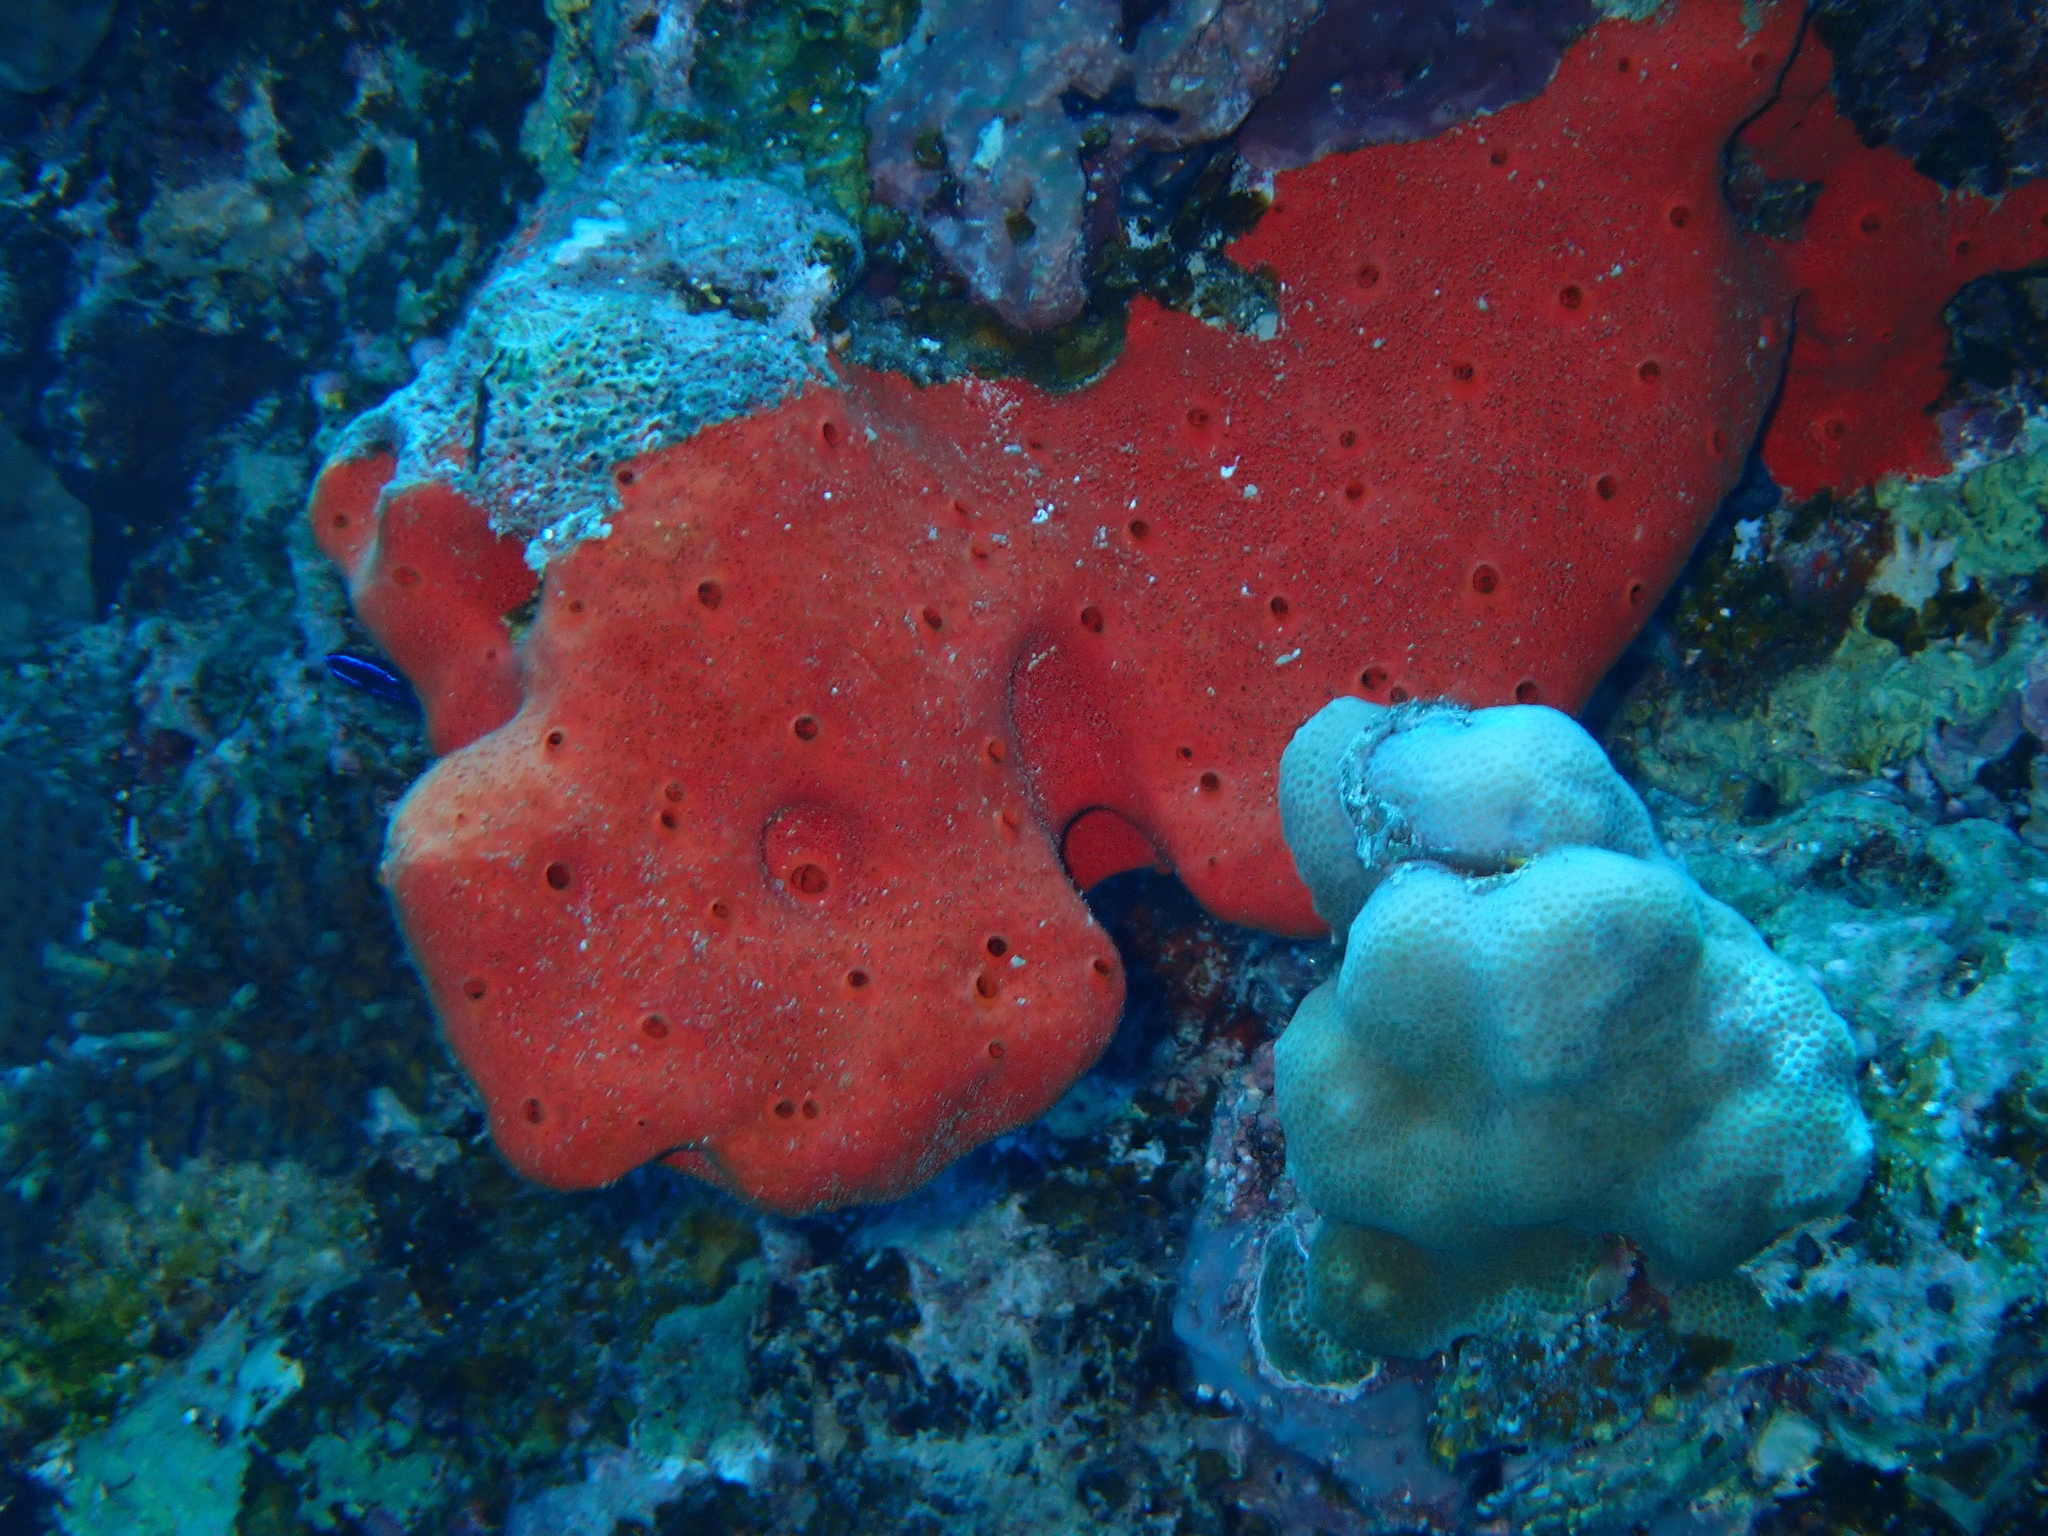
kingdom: Animalia
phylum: Porifera
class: Demospongiae
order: Clionaida
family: Clionaidae
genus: Pione
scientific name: Pione mussae
